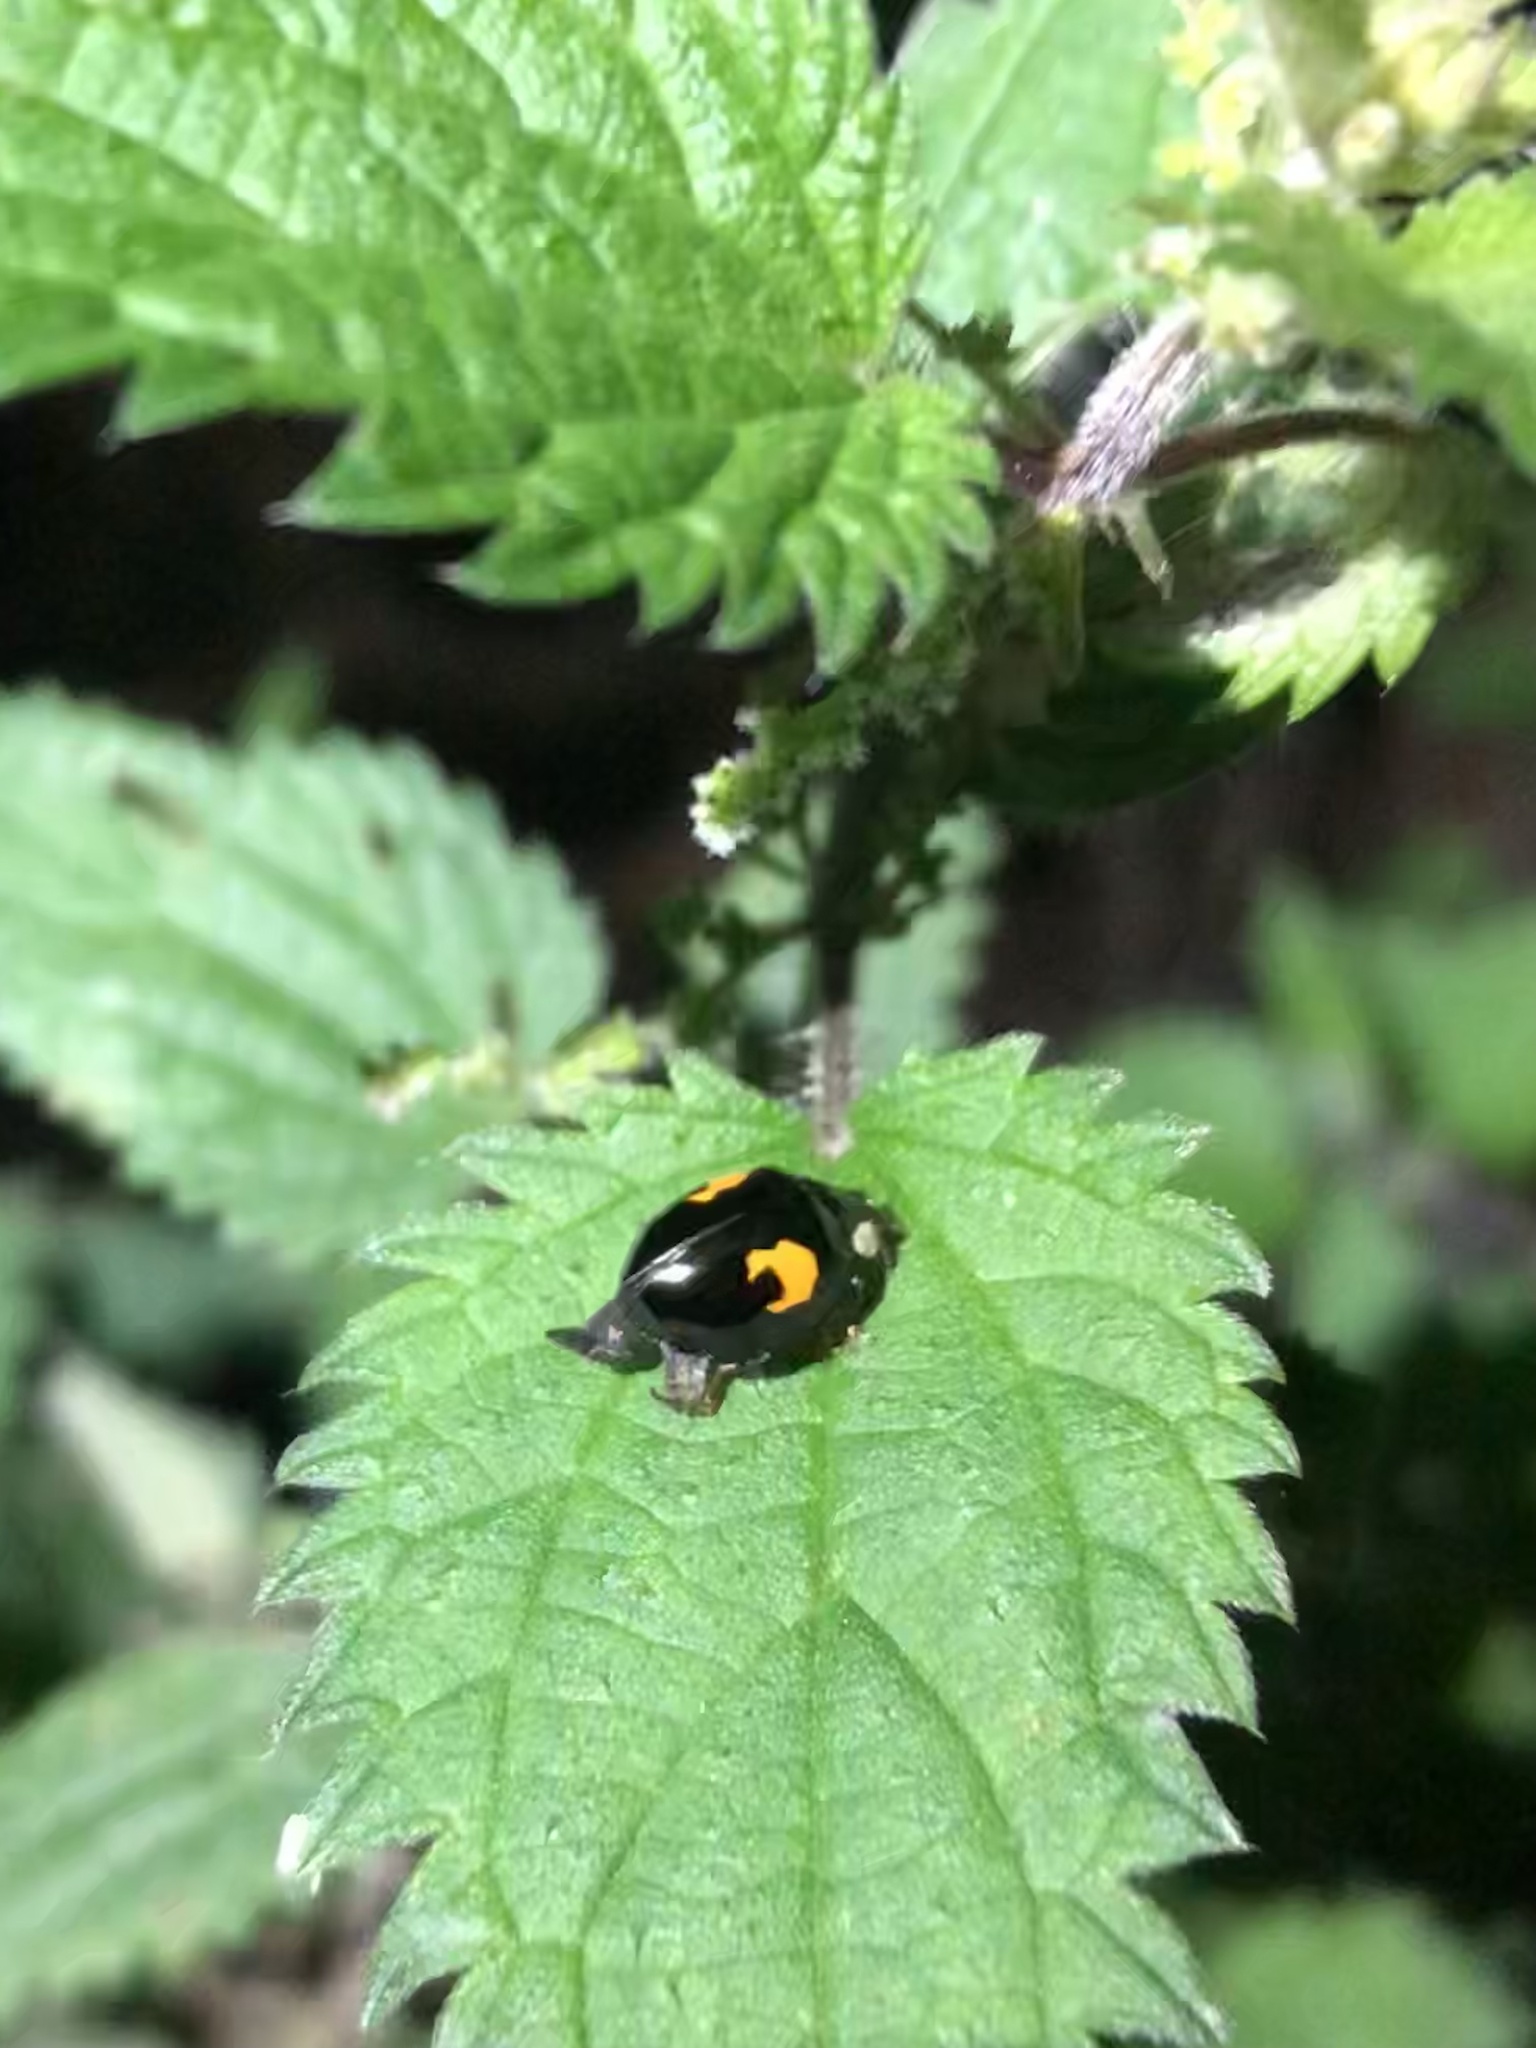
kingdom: Animalia
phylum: Arthropoda
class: Insecta
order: Coleoptera
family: Coccinellidae
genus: Harmonia
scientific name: Harmonia axyridis
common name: Harlequin ladybird
